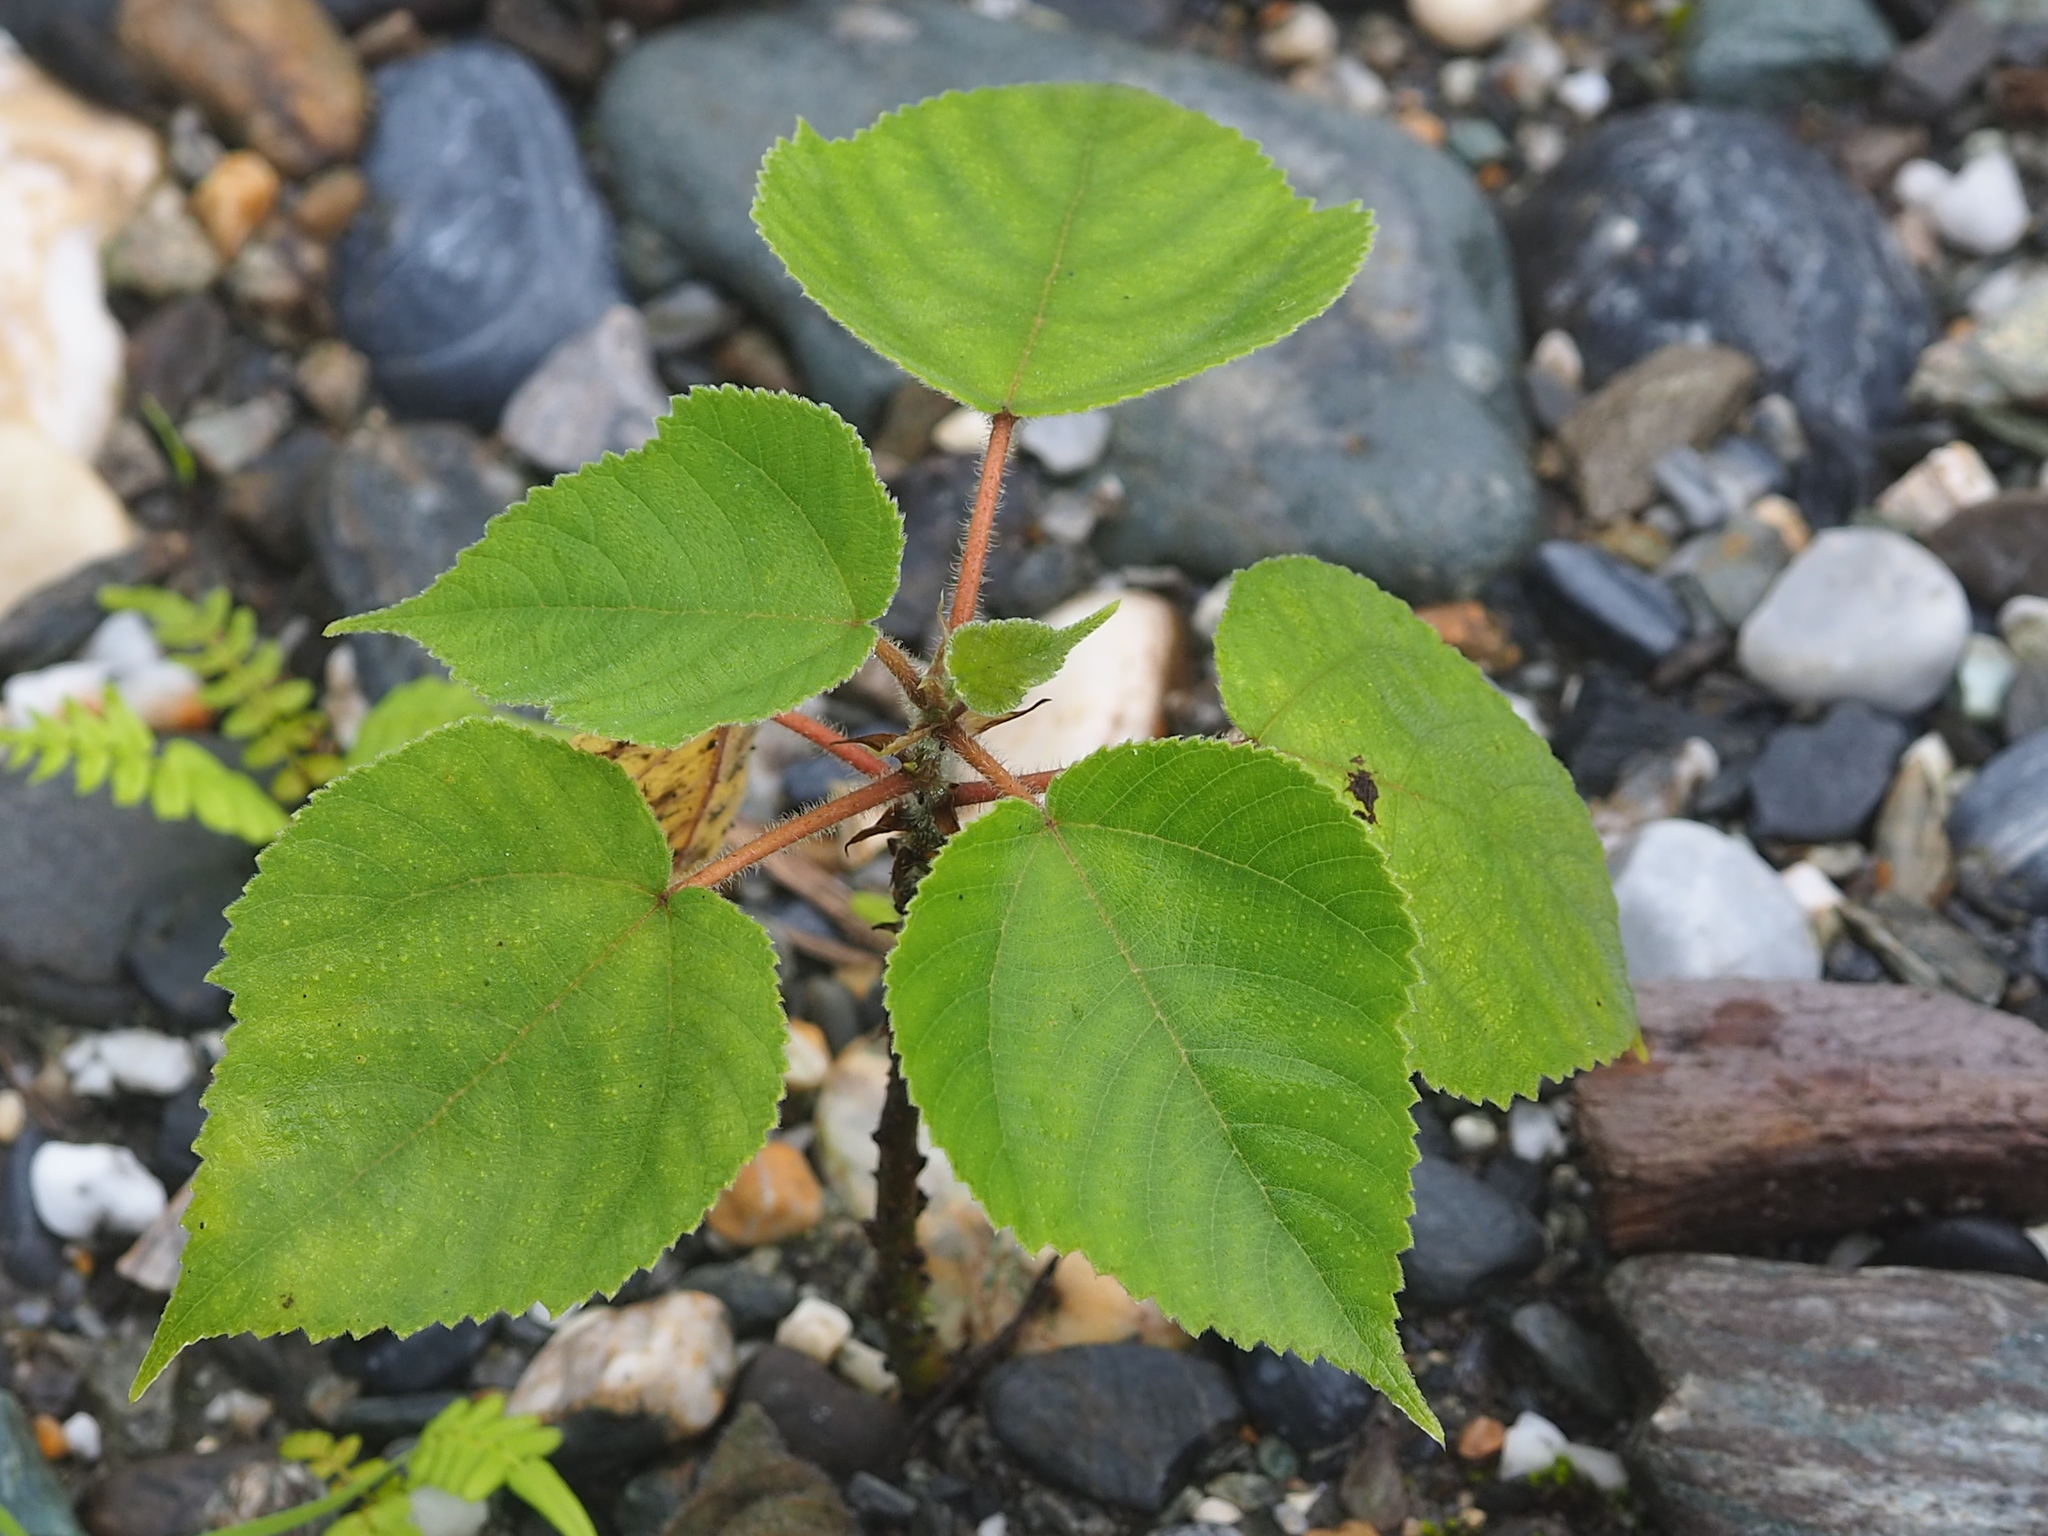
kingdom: Plantae
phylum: Tracheophyta
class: Magnoliopsida
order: Rosales
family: Moraceae
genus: Broussonetia
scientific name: Broussonetia papyrifera
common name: Paper mulberry
